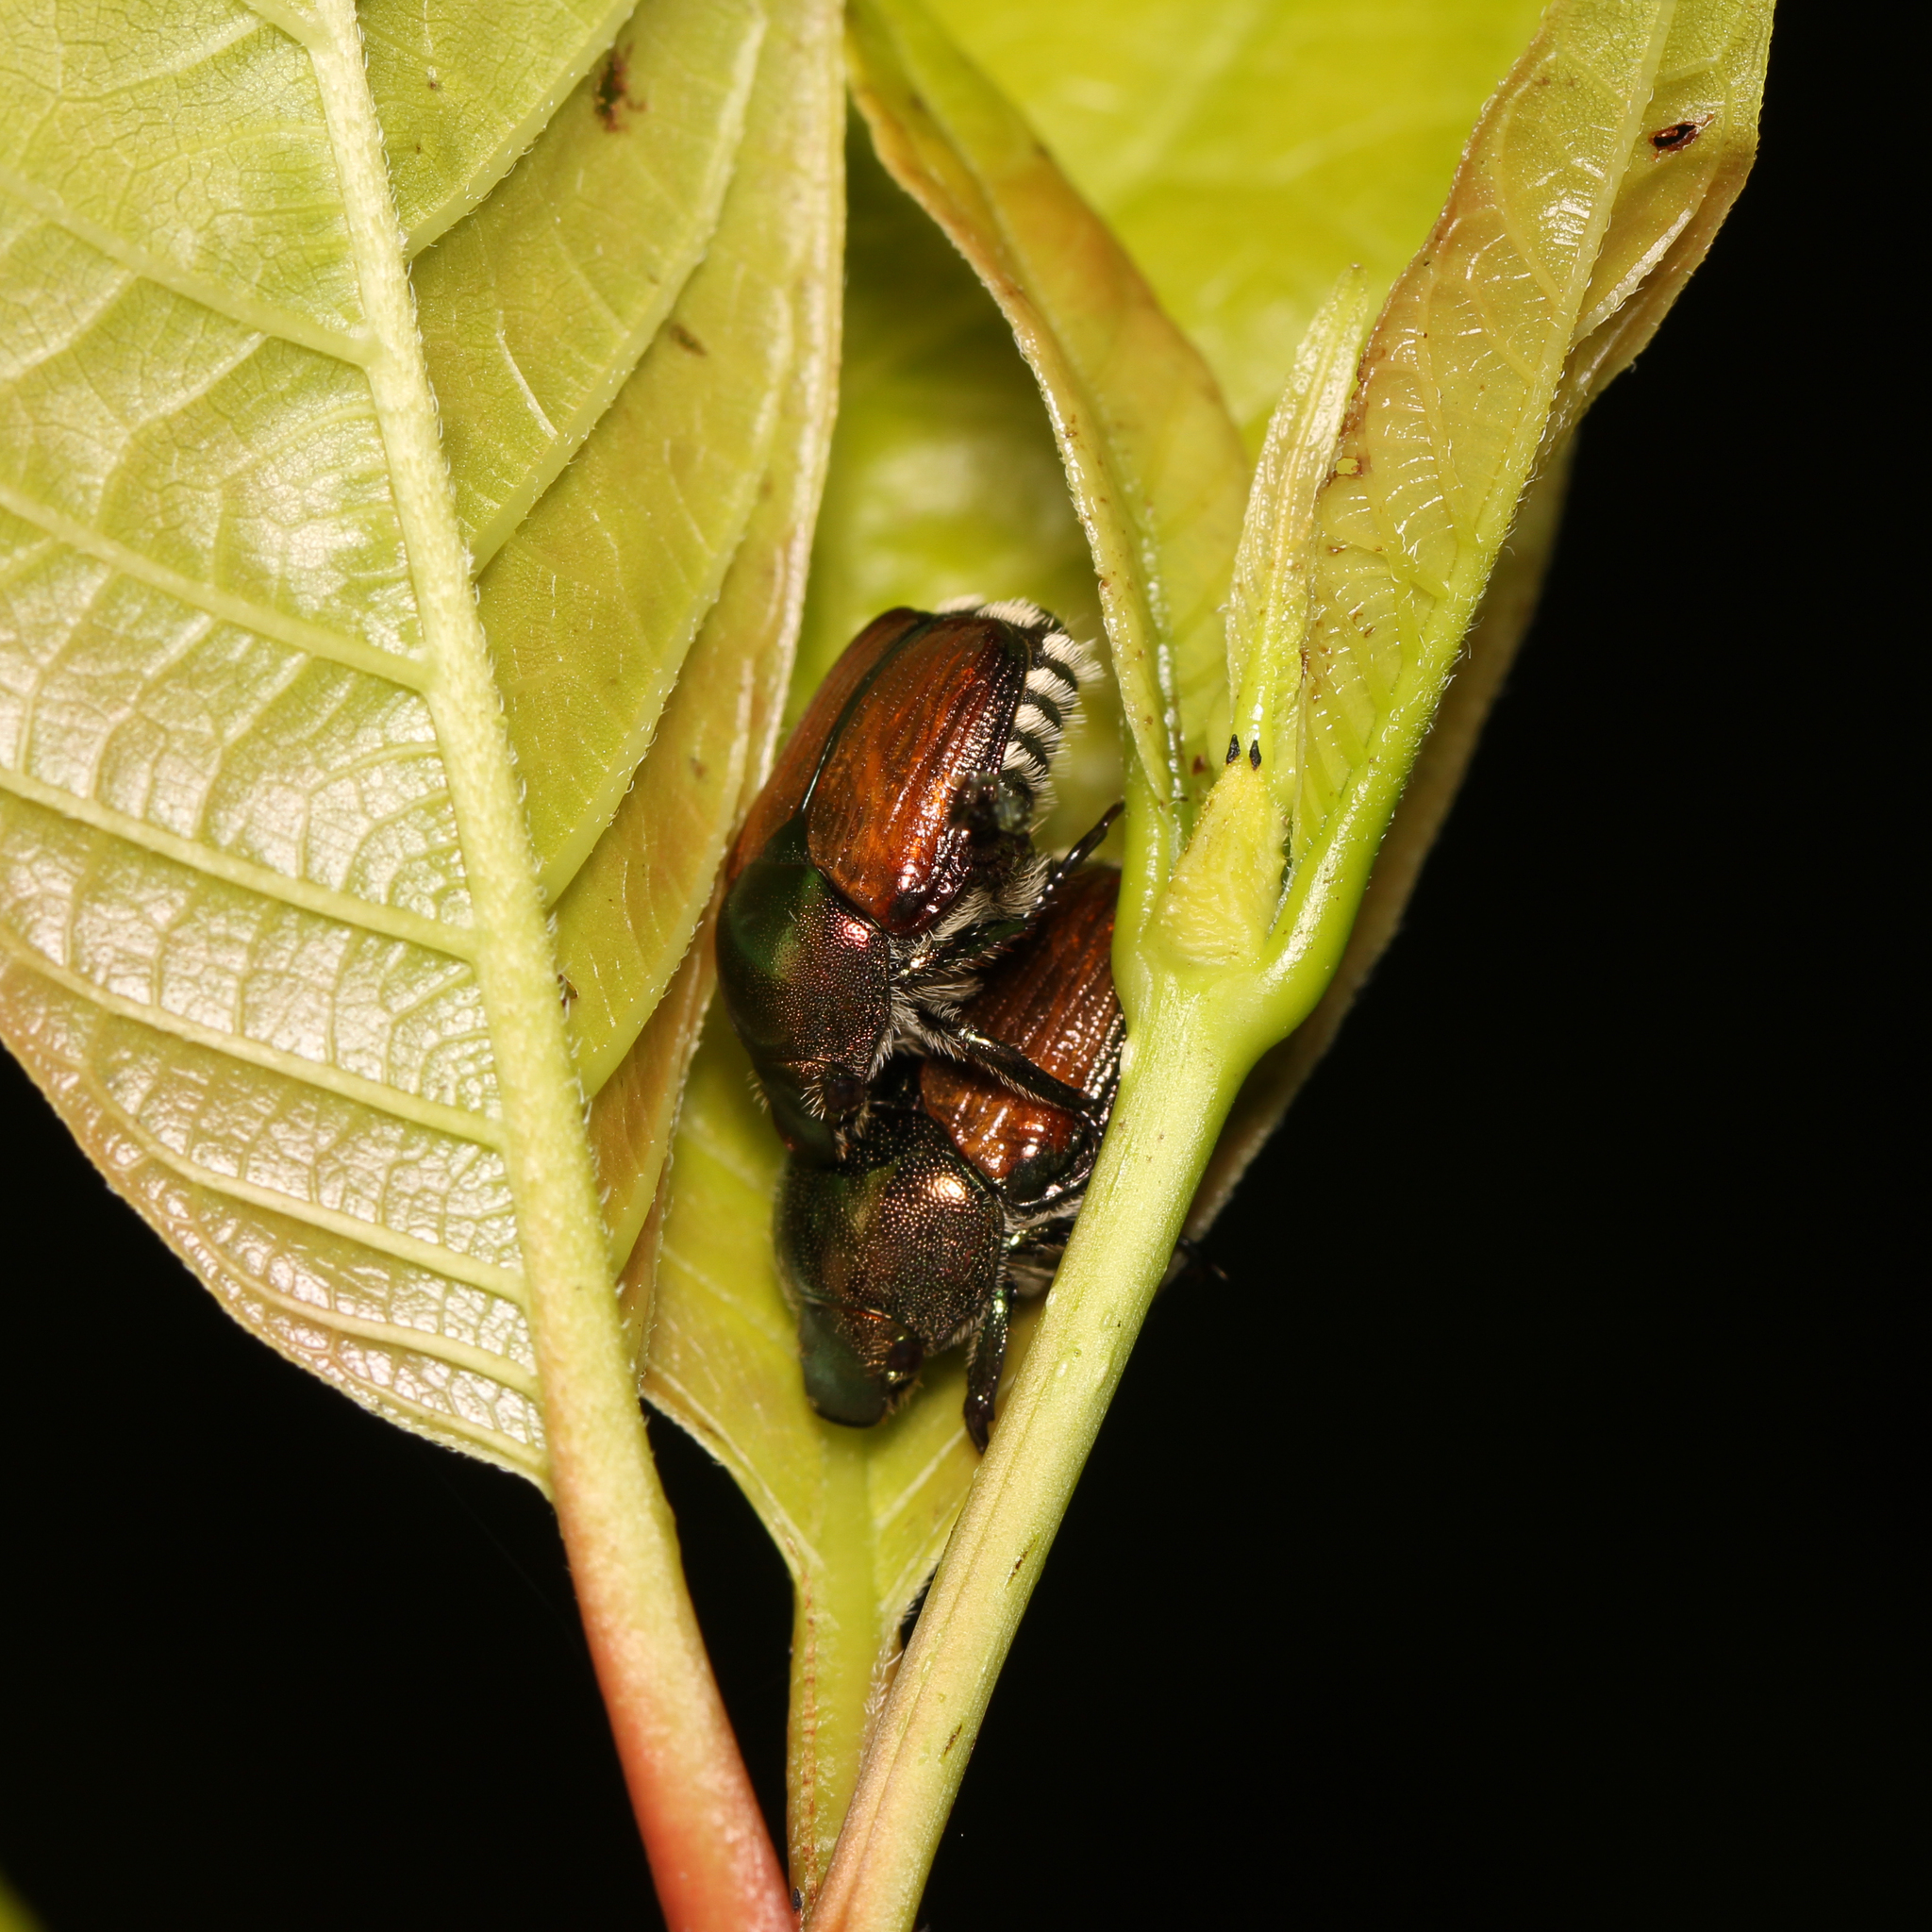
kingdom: Animalia
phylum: Arthropoda
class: Insecta
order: Coleoptera
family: Scarabaeidae
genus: Popillia
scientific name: Popillia japonica
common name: Japanese beetle
